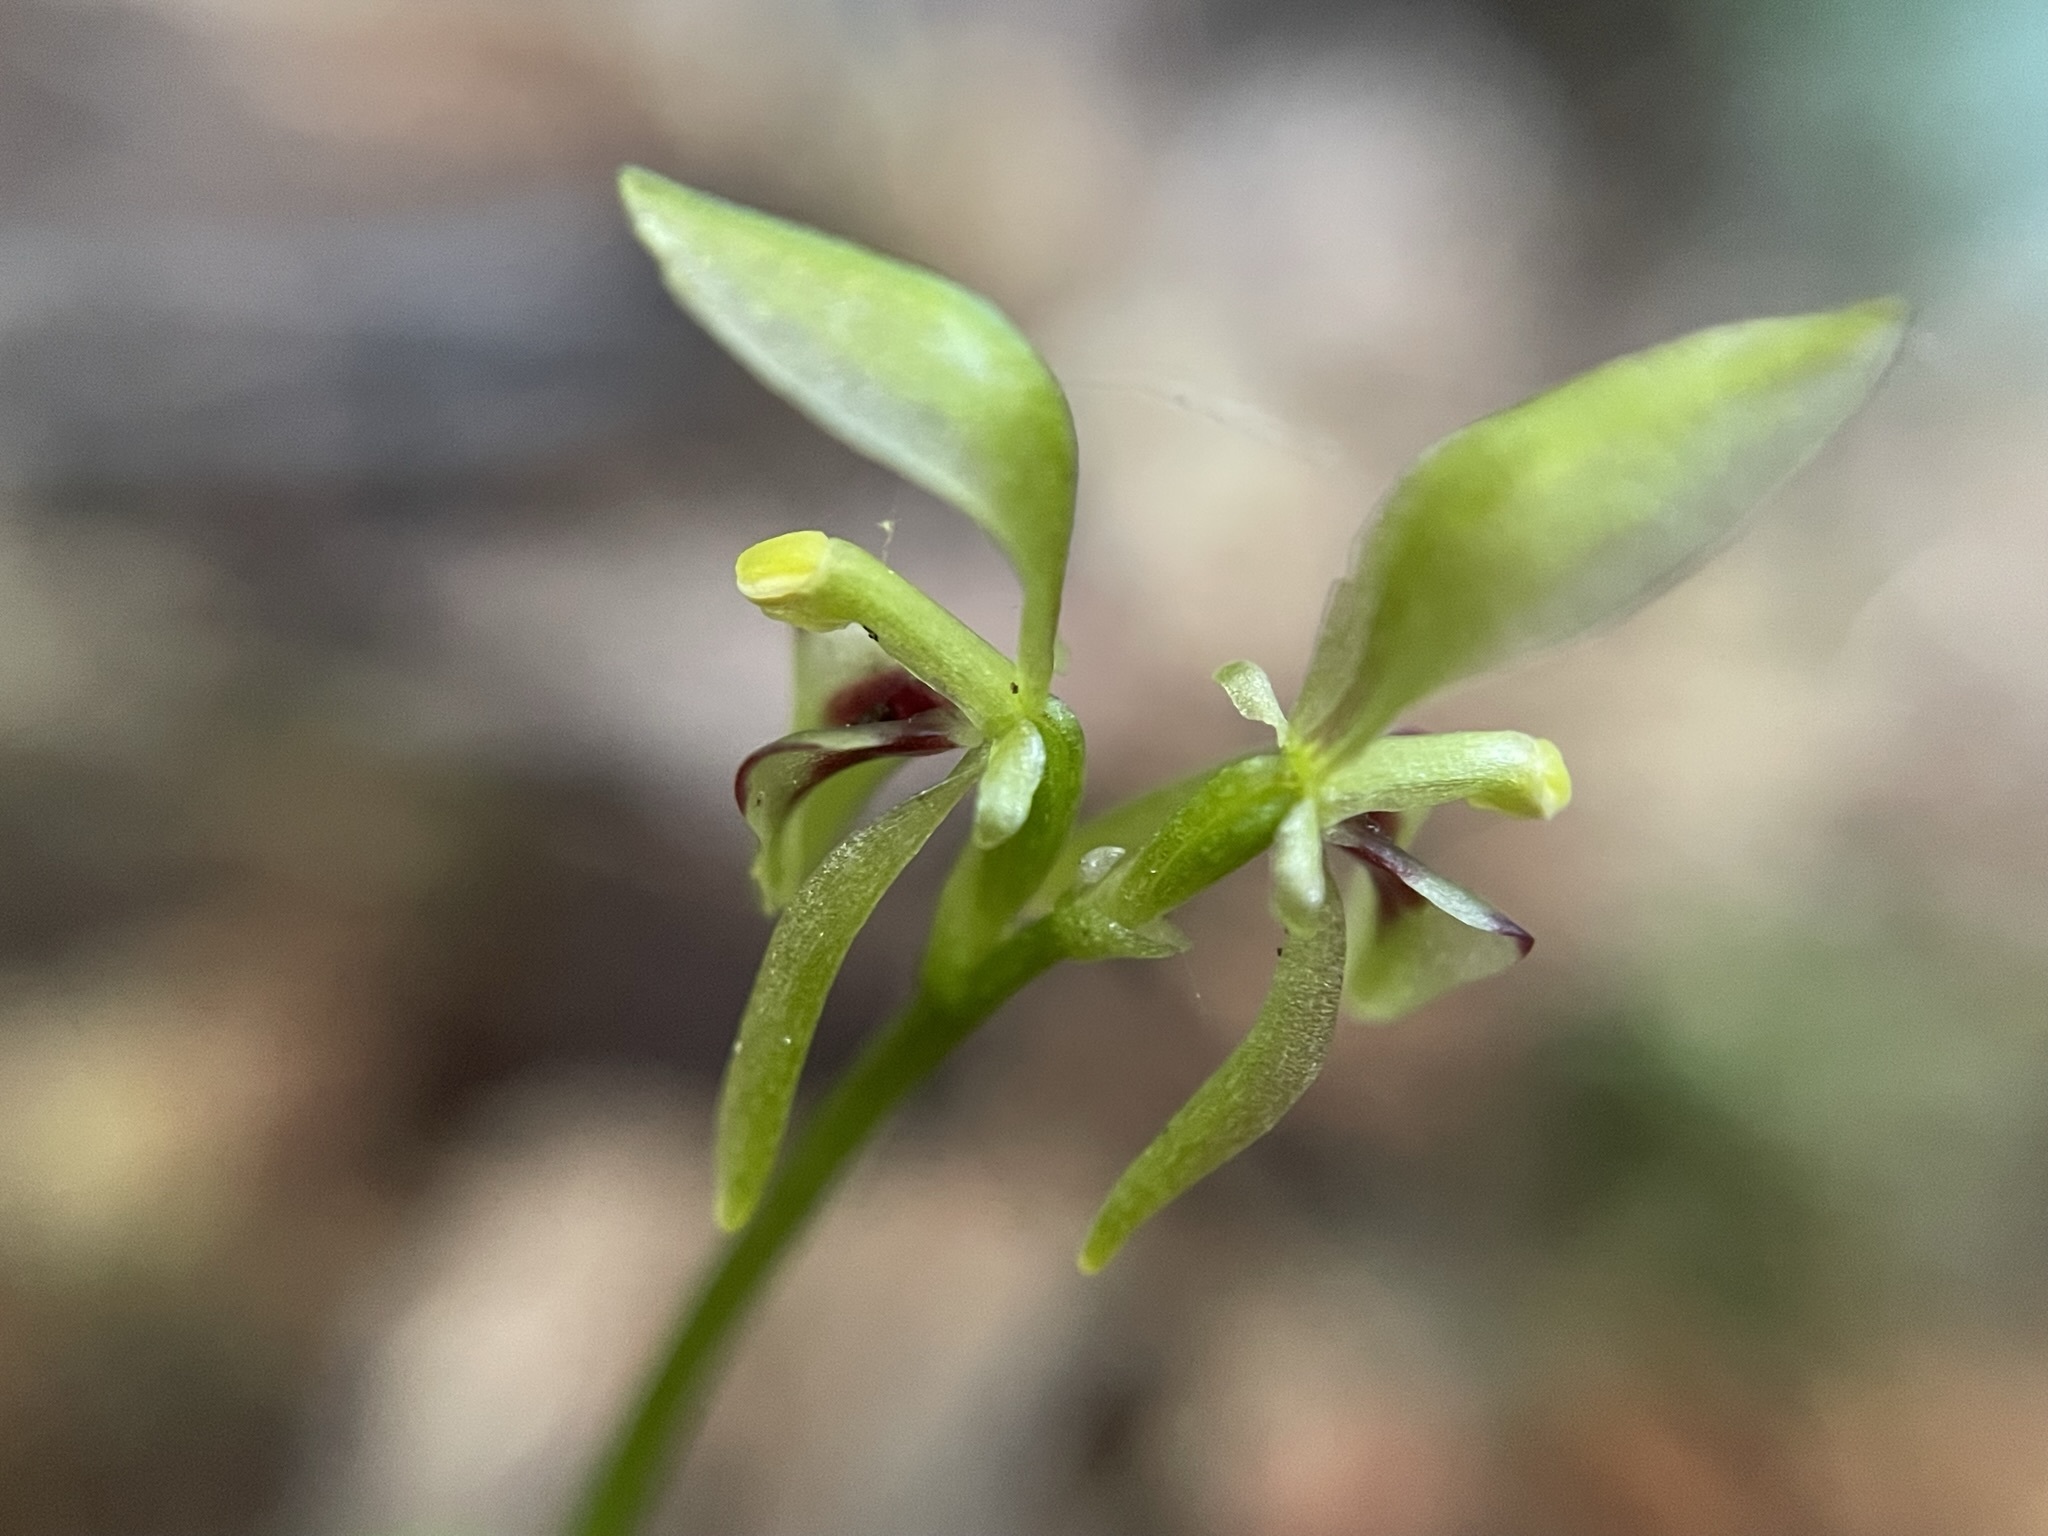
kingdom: Plantae
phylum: Tracheophyta
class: Liliopsida
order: Asparagales
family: Orchidaceae
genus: Townsonia
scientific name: Townsonia viridis
